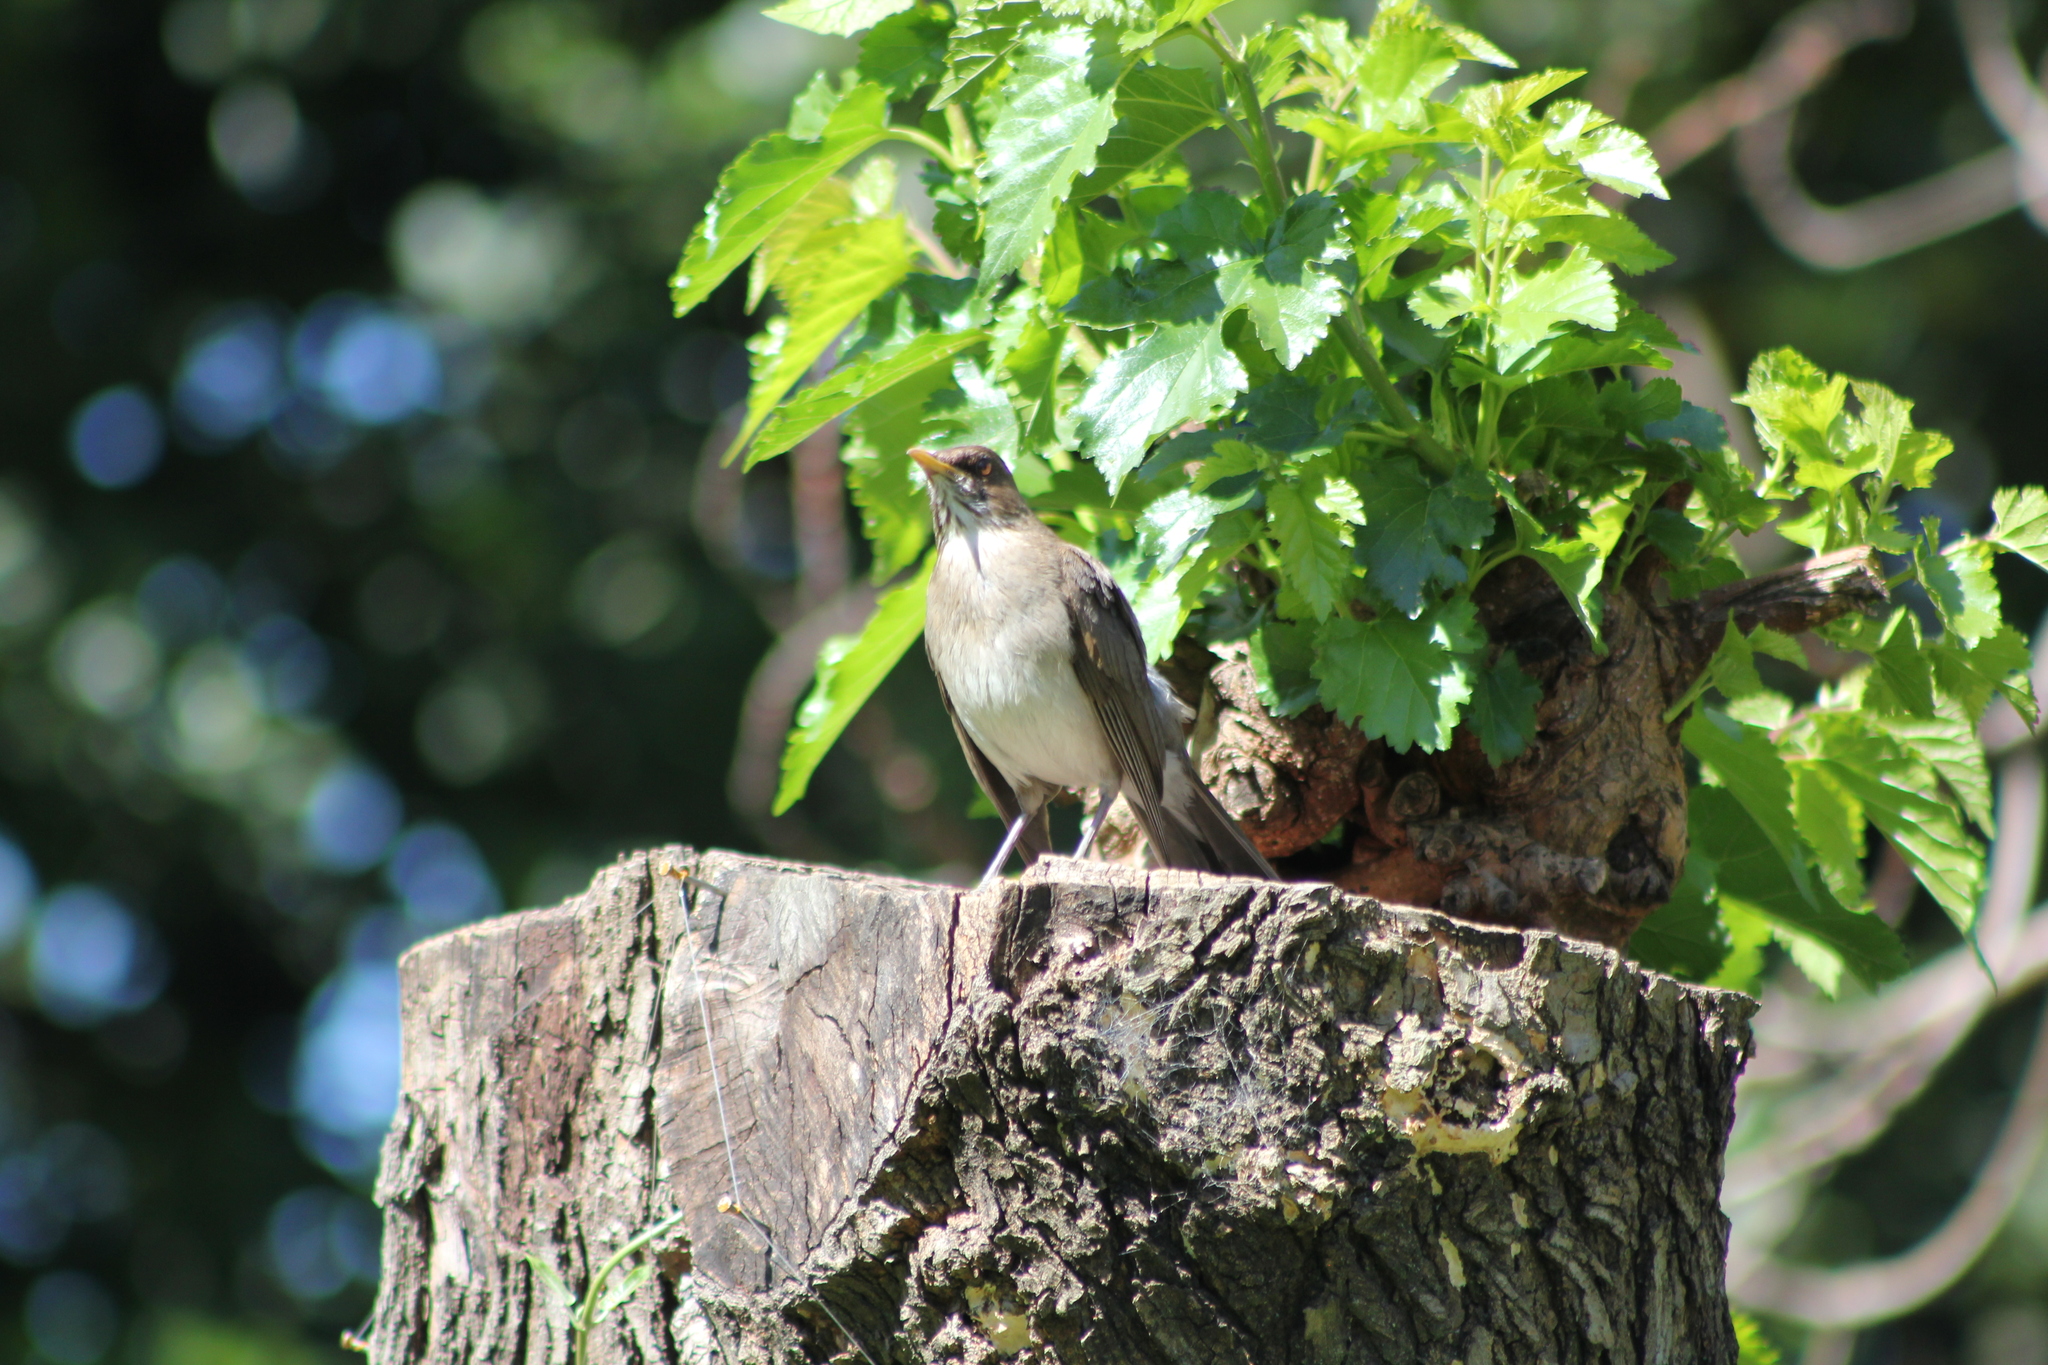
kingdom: Animalia
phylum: Chordata
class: Aves
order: Passeriformes
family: Turdidae
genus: Turdus
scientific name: Turdus amaurochalinus
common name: Creamy-bellied thrush
